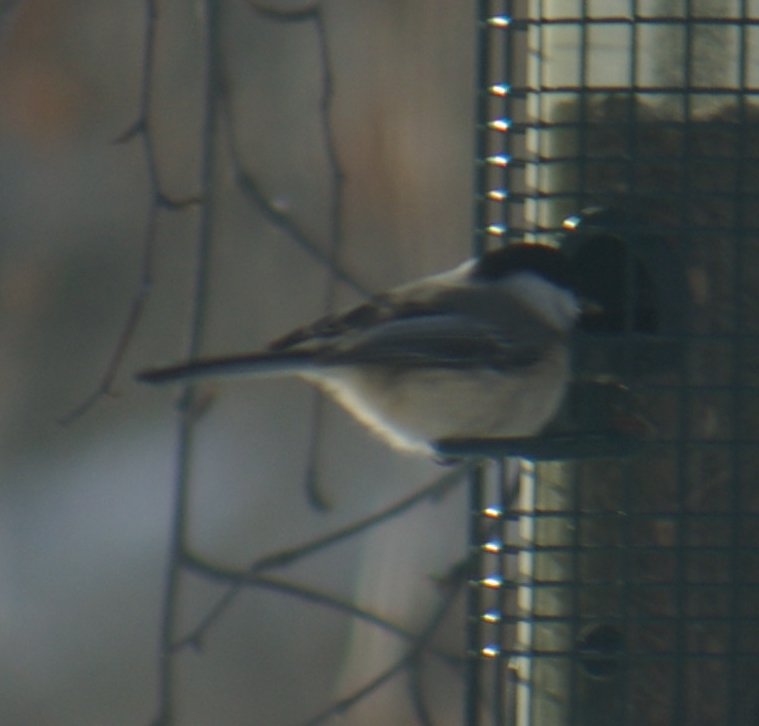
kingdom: Animalia
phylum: Chordata
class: Aves
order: Passeriformes
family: Paridae
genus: Poecile
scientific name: Poecile atricapillus
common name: Black-capped chickadee
